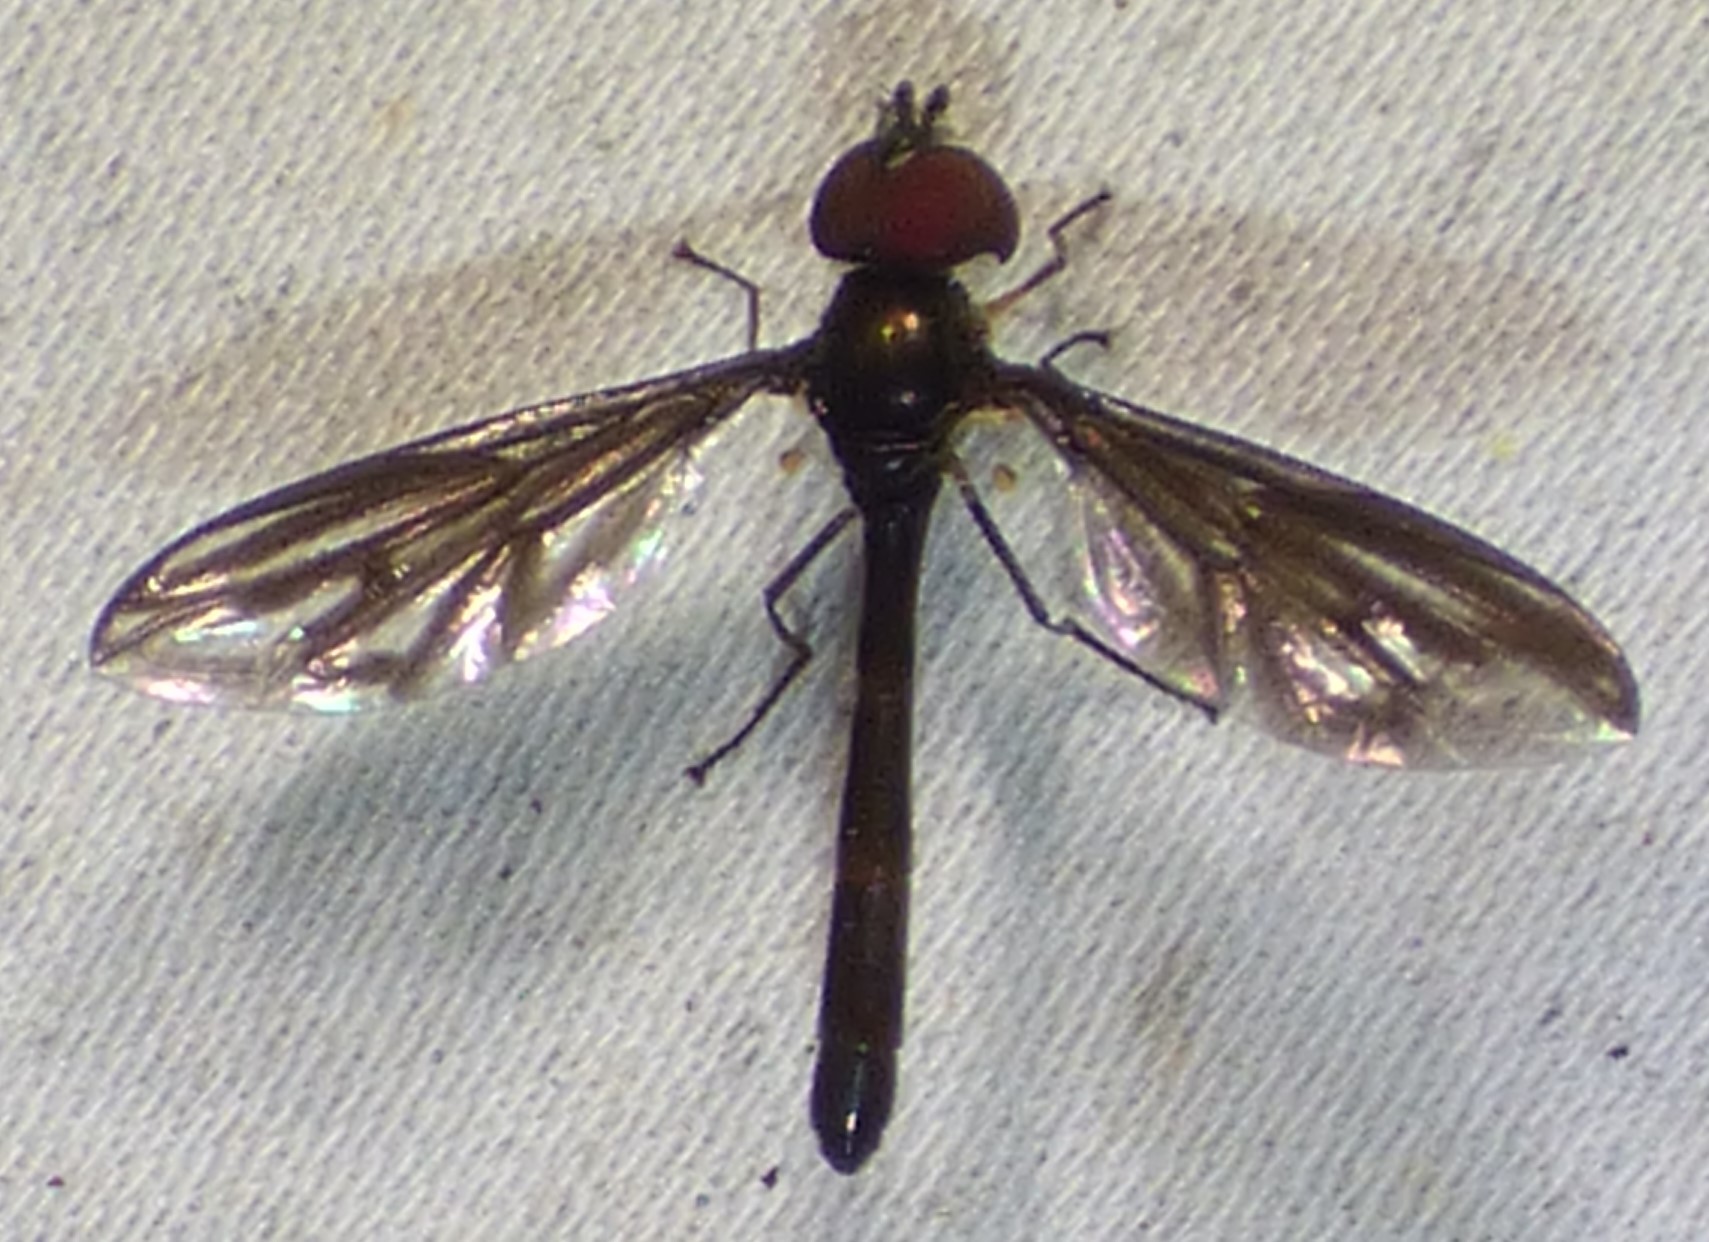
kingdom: Animalia
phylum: Arthropoda
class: Insecta
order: Diptera
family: Syrphidae
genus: Ocyptamus
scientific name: Ocyptamus fuscipennis
